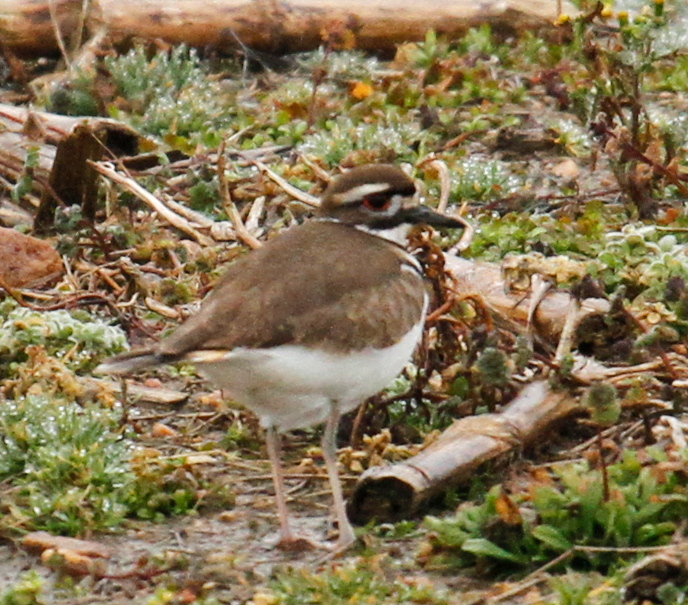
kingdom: Animalia
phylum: Chordata
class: Aves
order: Charadriiformes
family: Charadriidae
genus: Charadrius
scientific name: Charadrius vociferus
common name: Killdeer
